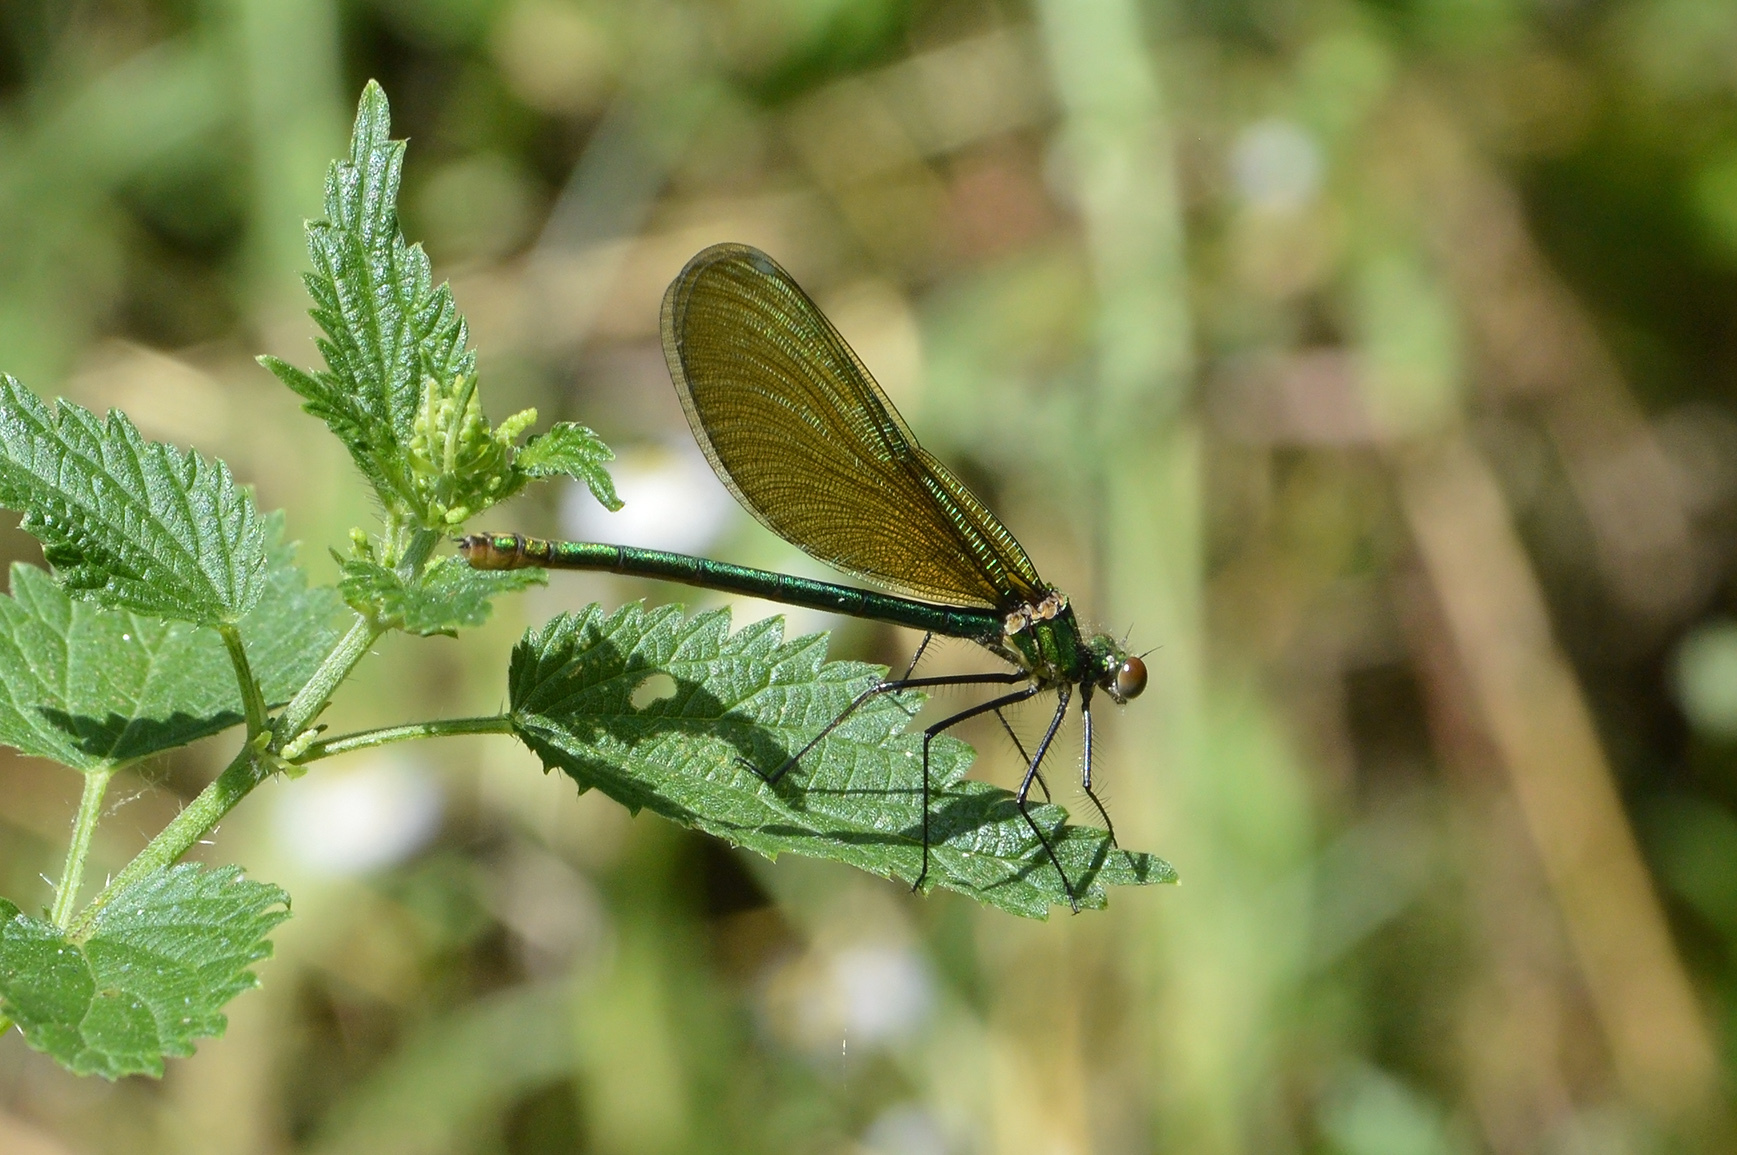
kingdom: Animalia
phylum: Arthropoda
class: Insecta
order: Odonata
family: Calopterygidae
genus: Calopteryx
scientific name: Calopteryx splendens
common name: Banded demoiselle
